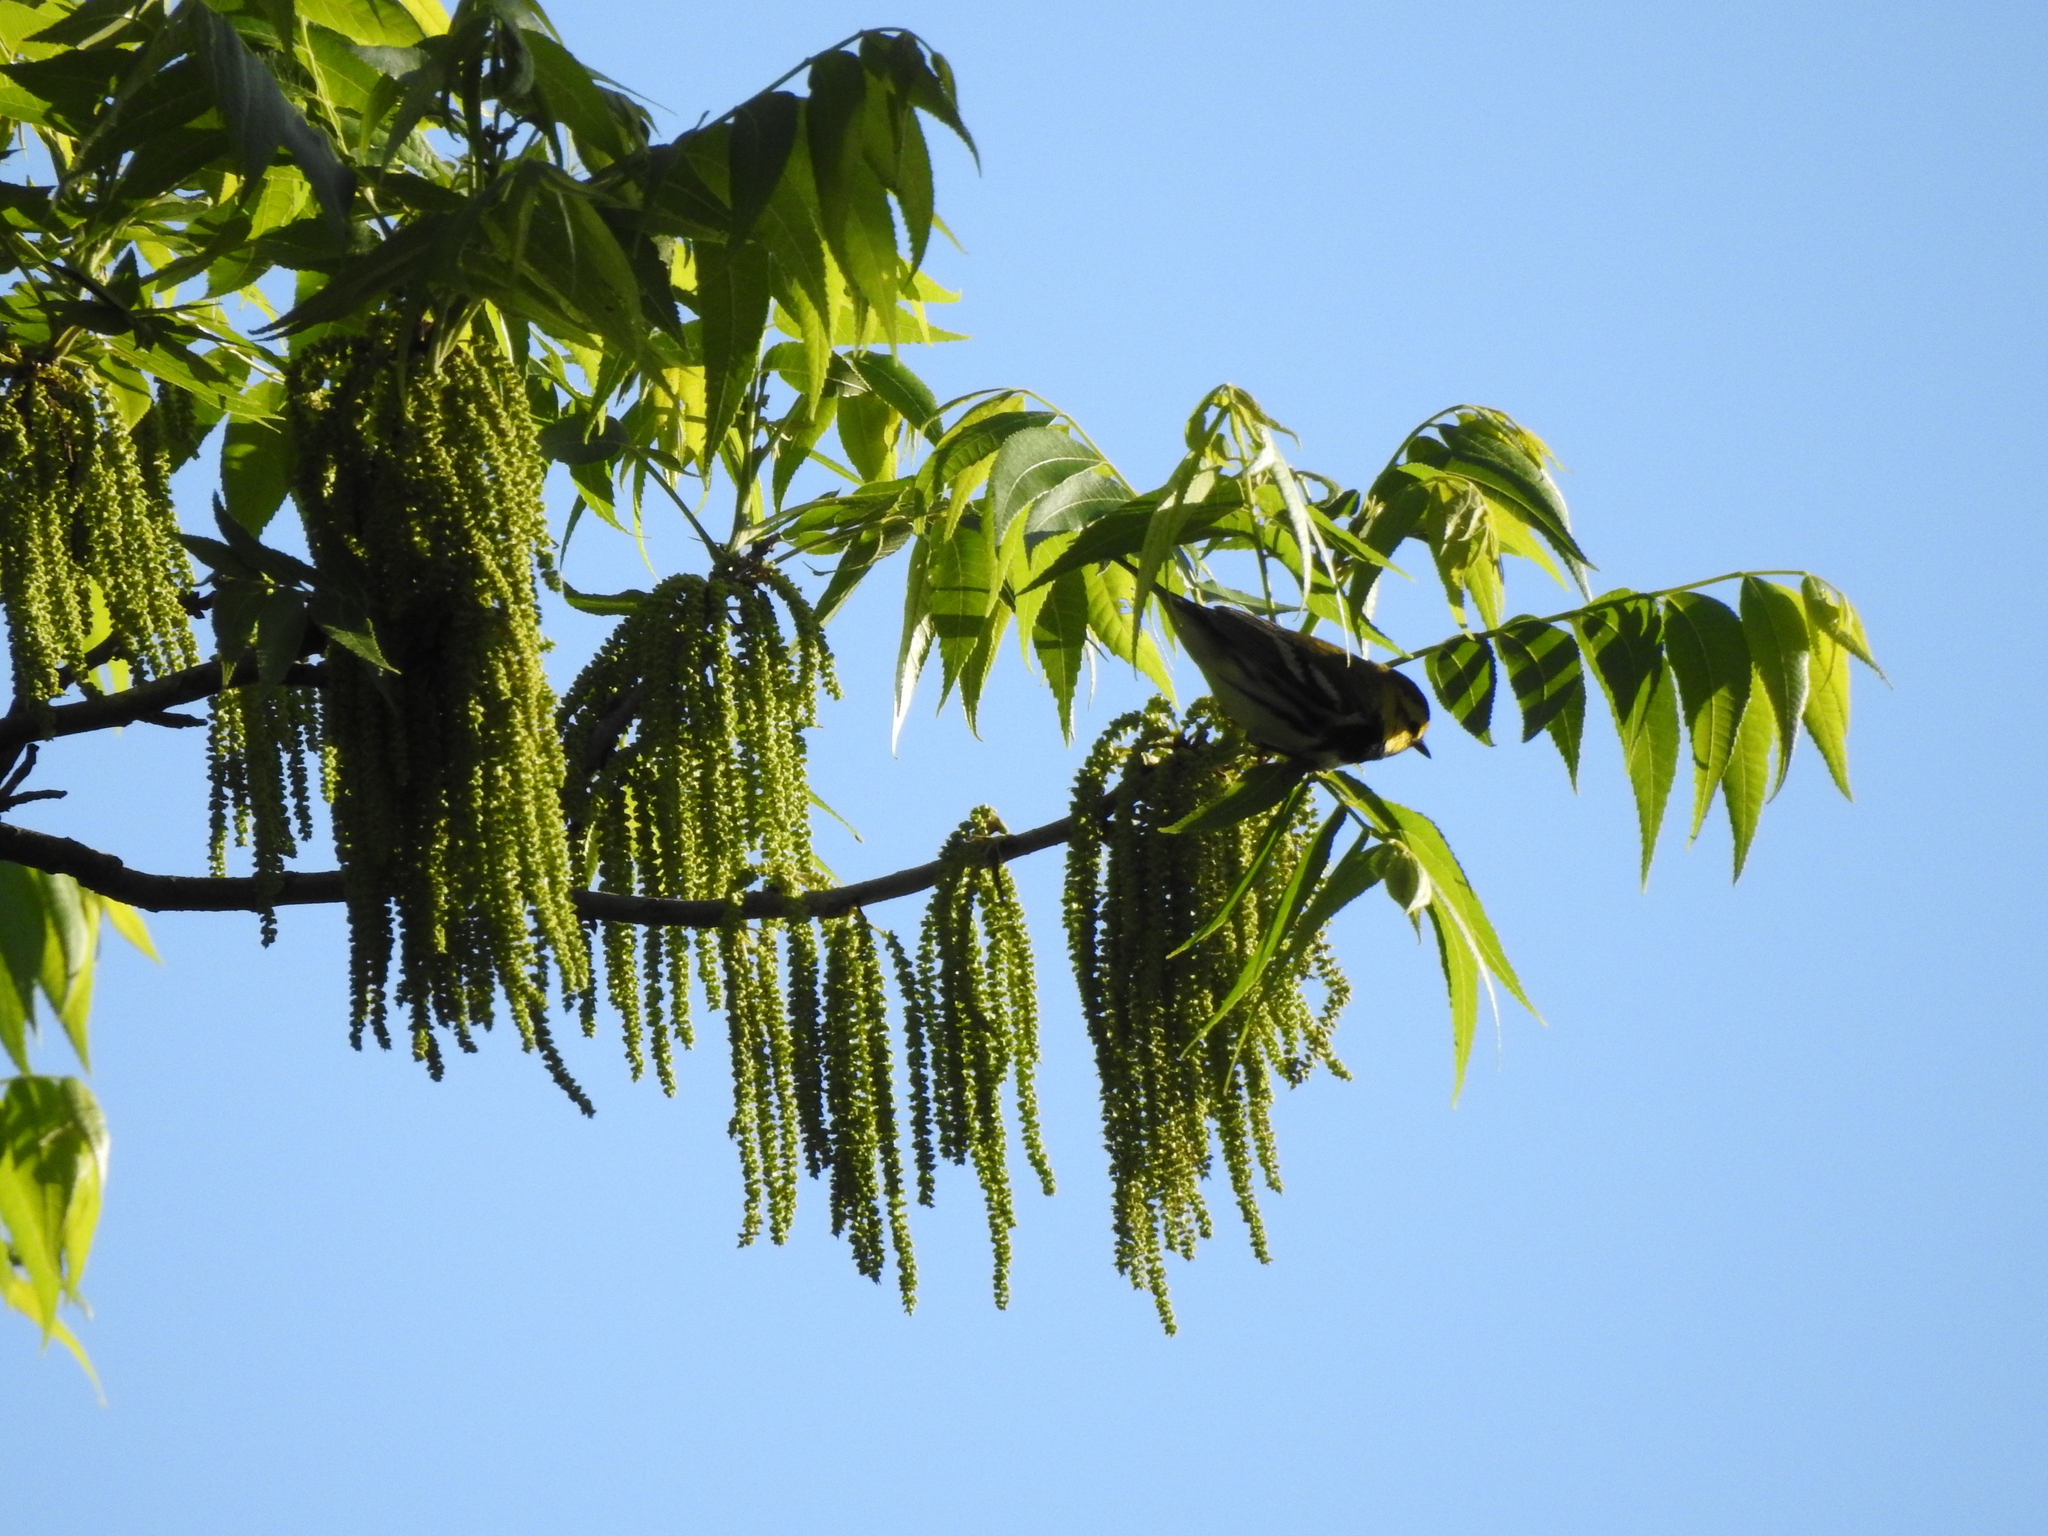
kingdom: Animalia
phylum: Chordata
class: Aves
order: Passeriformes
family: Parulidae
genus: Setophaga
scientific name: Setophaga virens
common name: Black-throated green warbler
